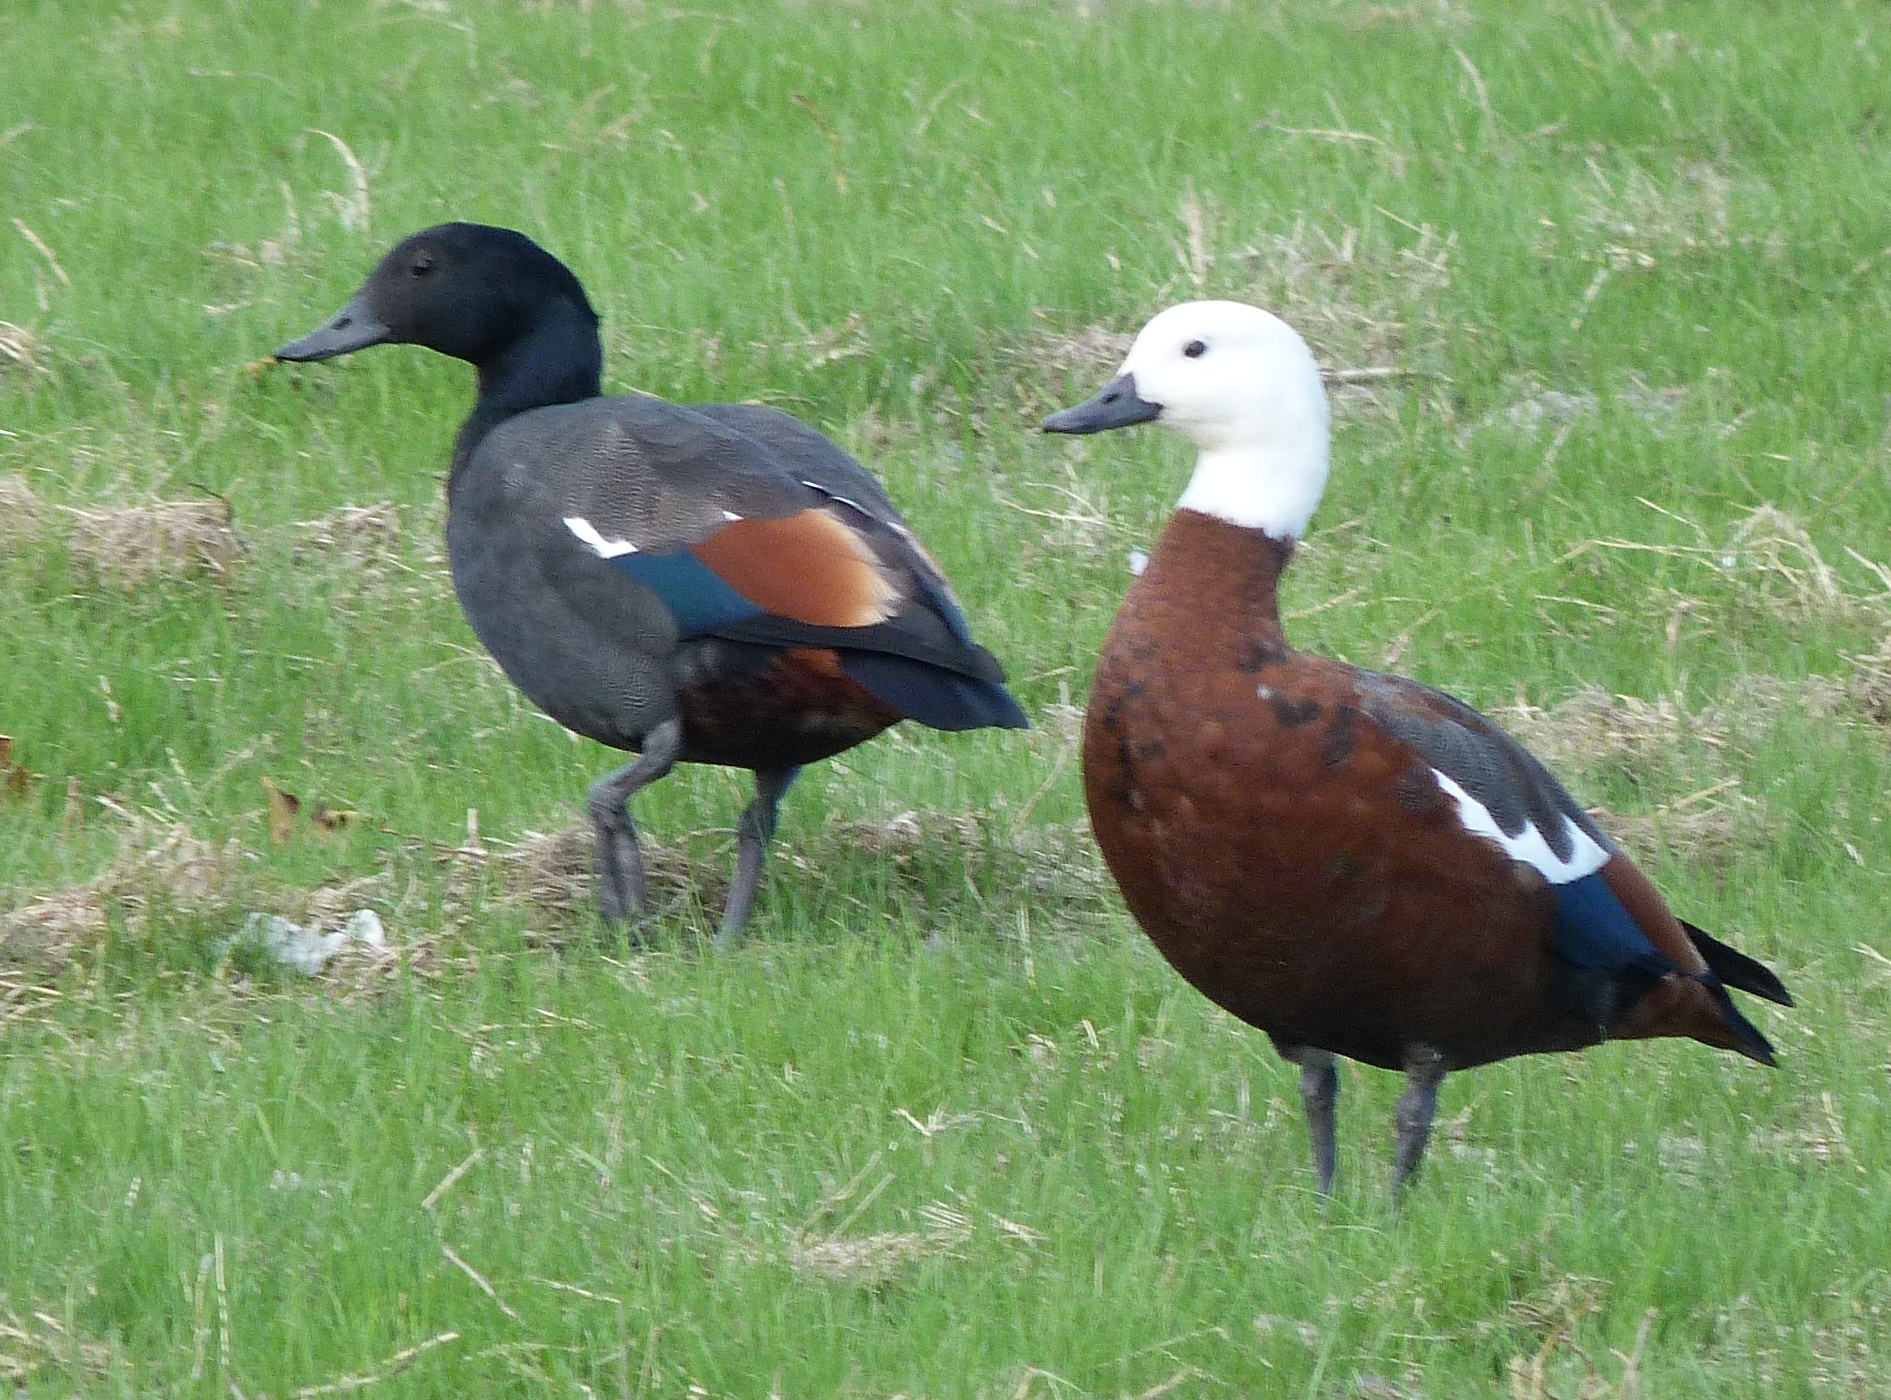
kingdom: Animalia
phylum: Chordata
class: Aves
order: Anseriformes
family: Anatidae
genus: Tadorna
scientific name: Tadorna variegata
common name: Paradise shelduck
